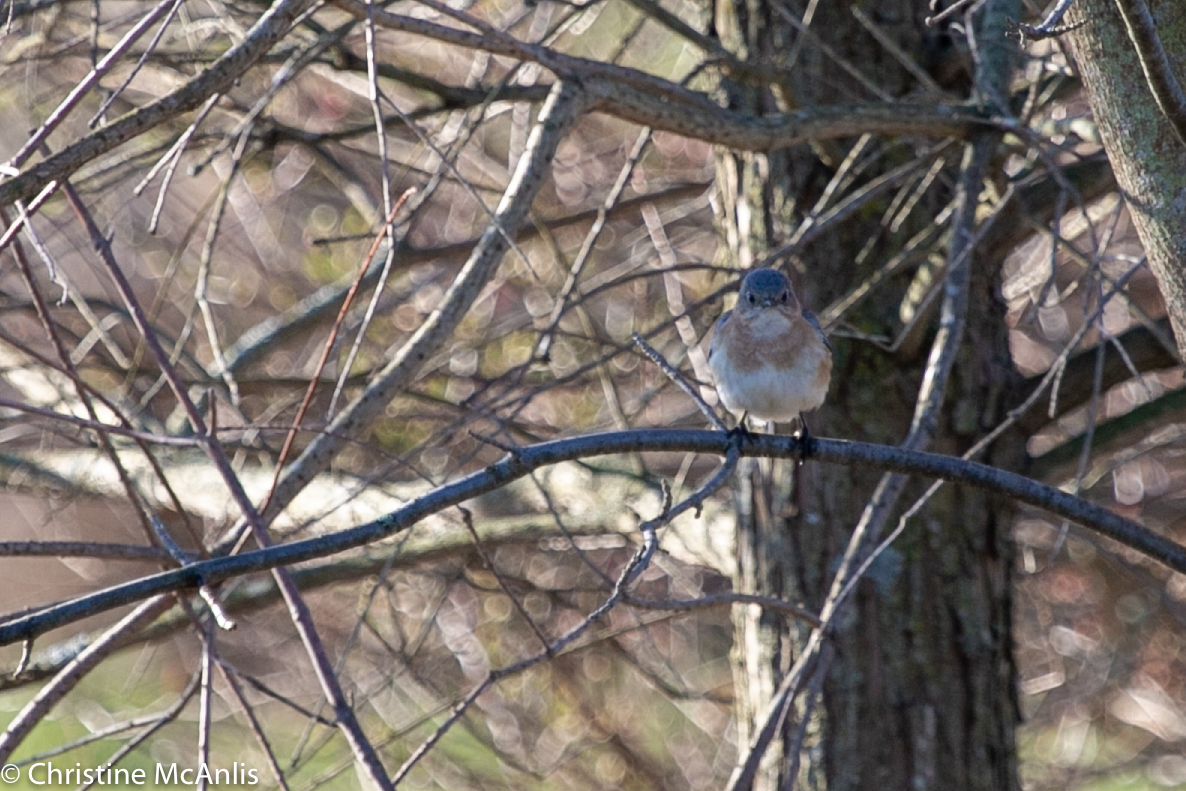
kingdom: Animalia
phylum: Chordata
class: Aves
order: Passeriformes
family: Turdidae
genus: Sialia
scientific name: Sialia sialis
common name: Eastern bluebird
